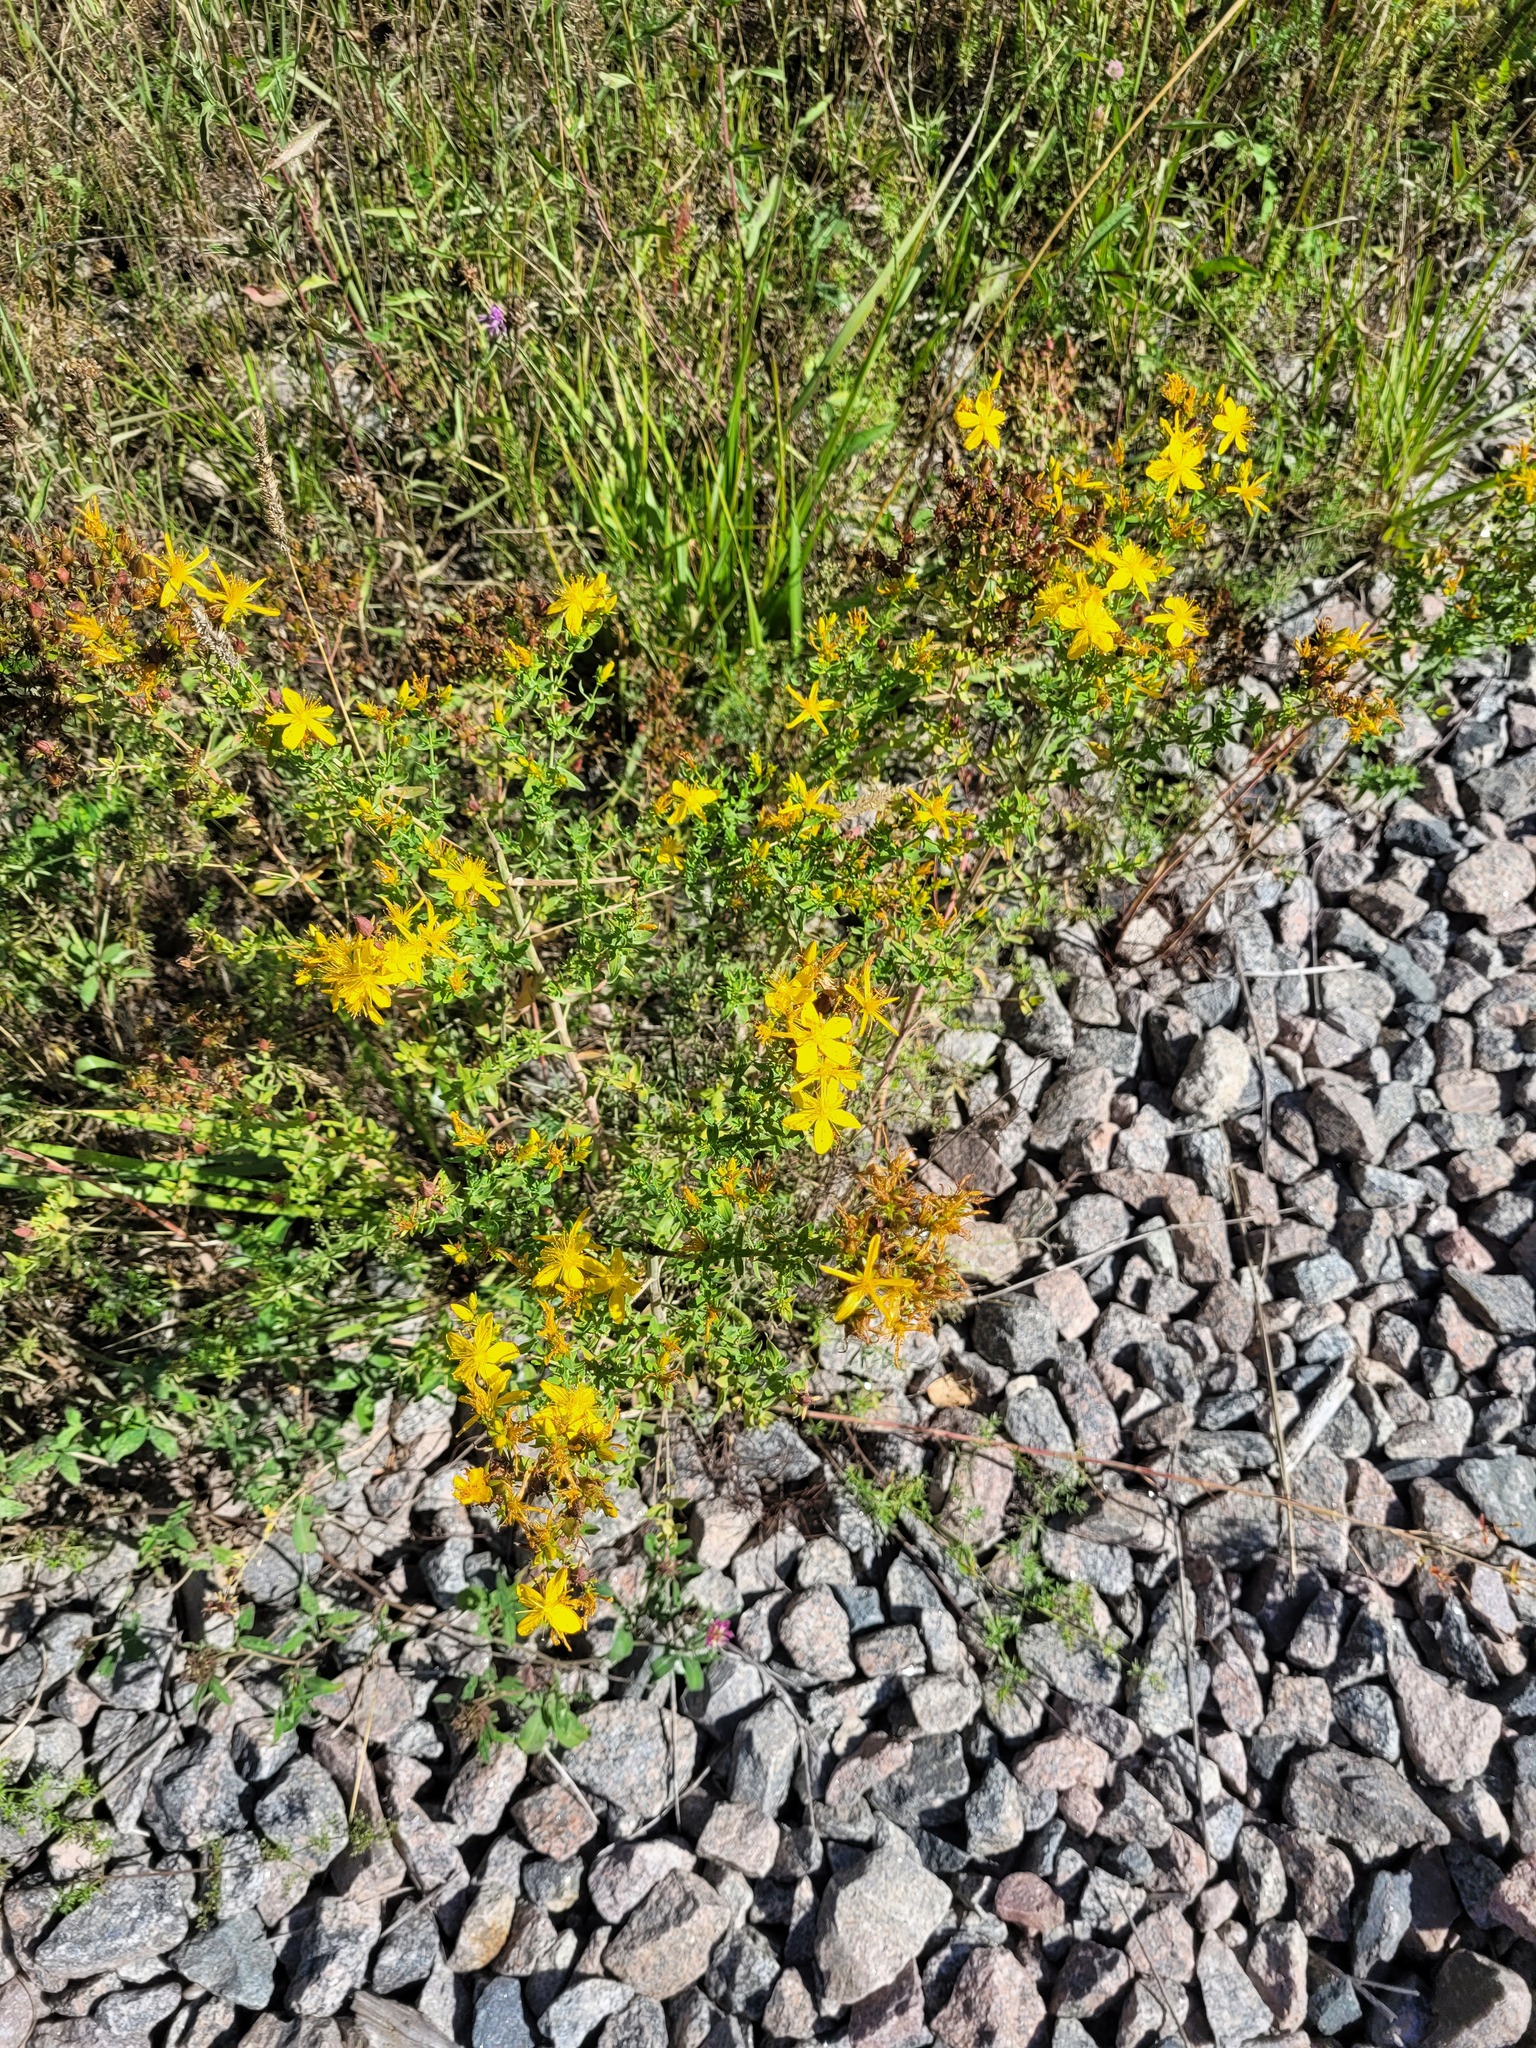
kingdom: Plantae
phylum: Tracheophyta
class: Magnoliopsida
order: Malpighiales
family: Hypericaceae
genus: Hypericum
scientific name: Hypericum perforatum
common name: Common st. johnswort
